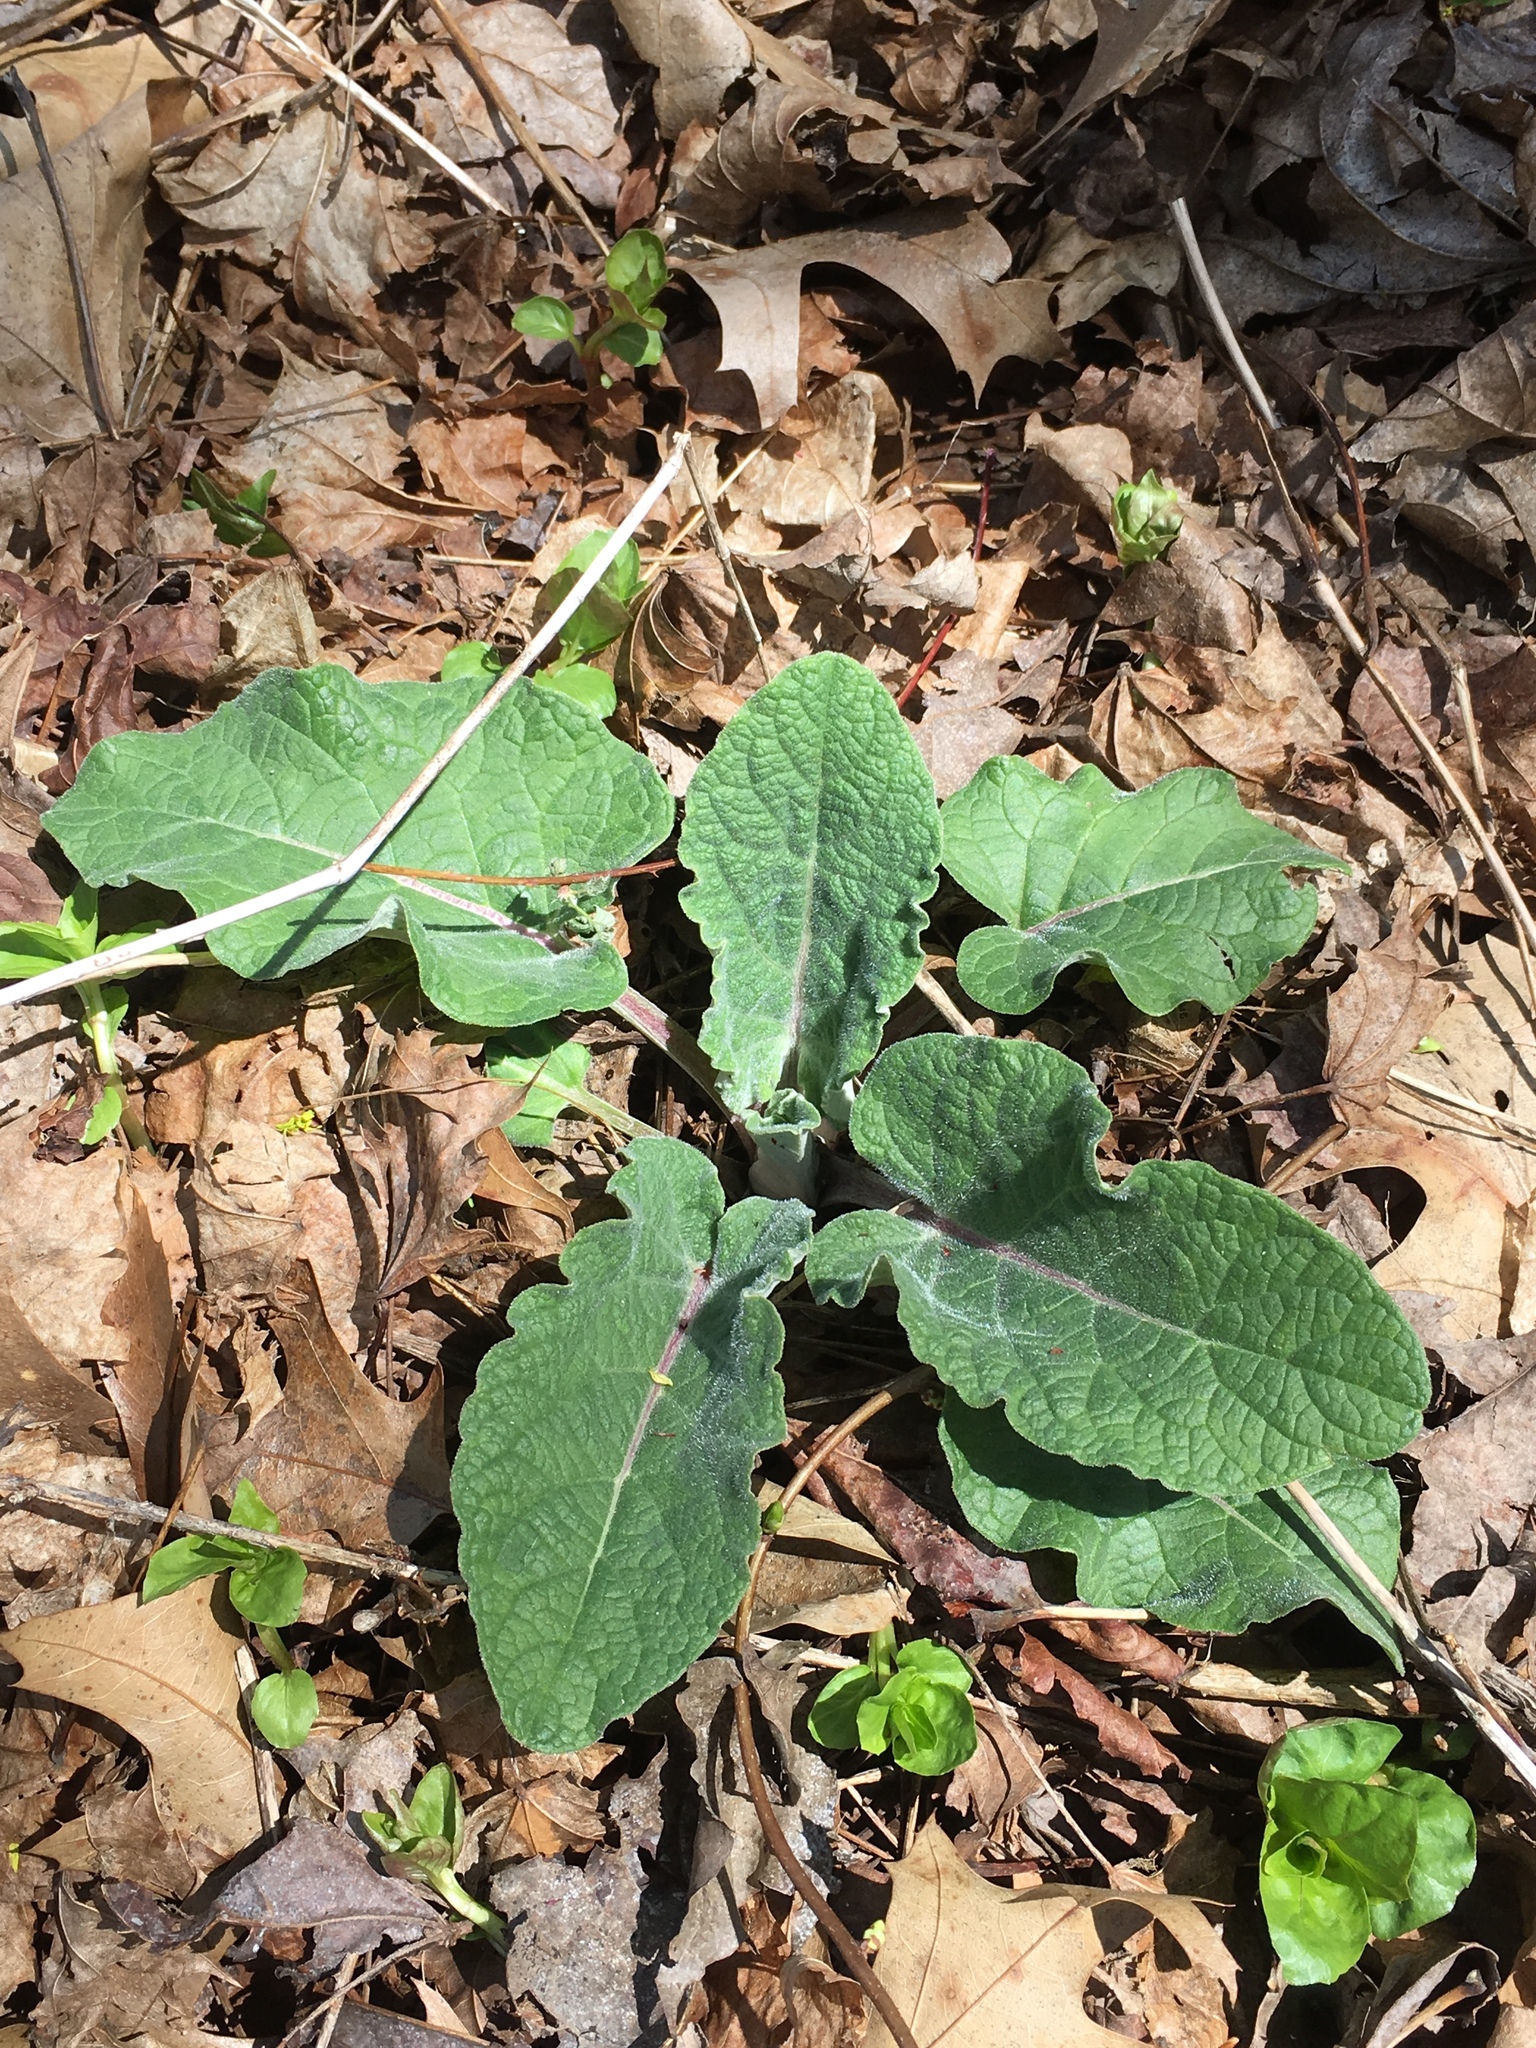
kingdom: Plantae
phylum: Tracheophyta
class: Magnoliopsida
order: Asterales
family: Asteraceae
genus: Arctium
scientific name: Arctium
